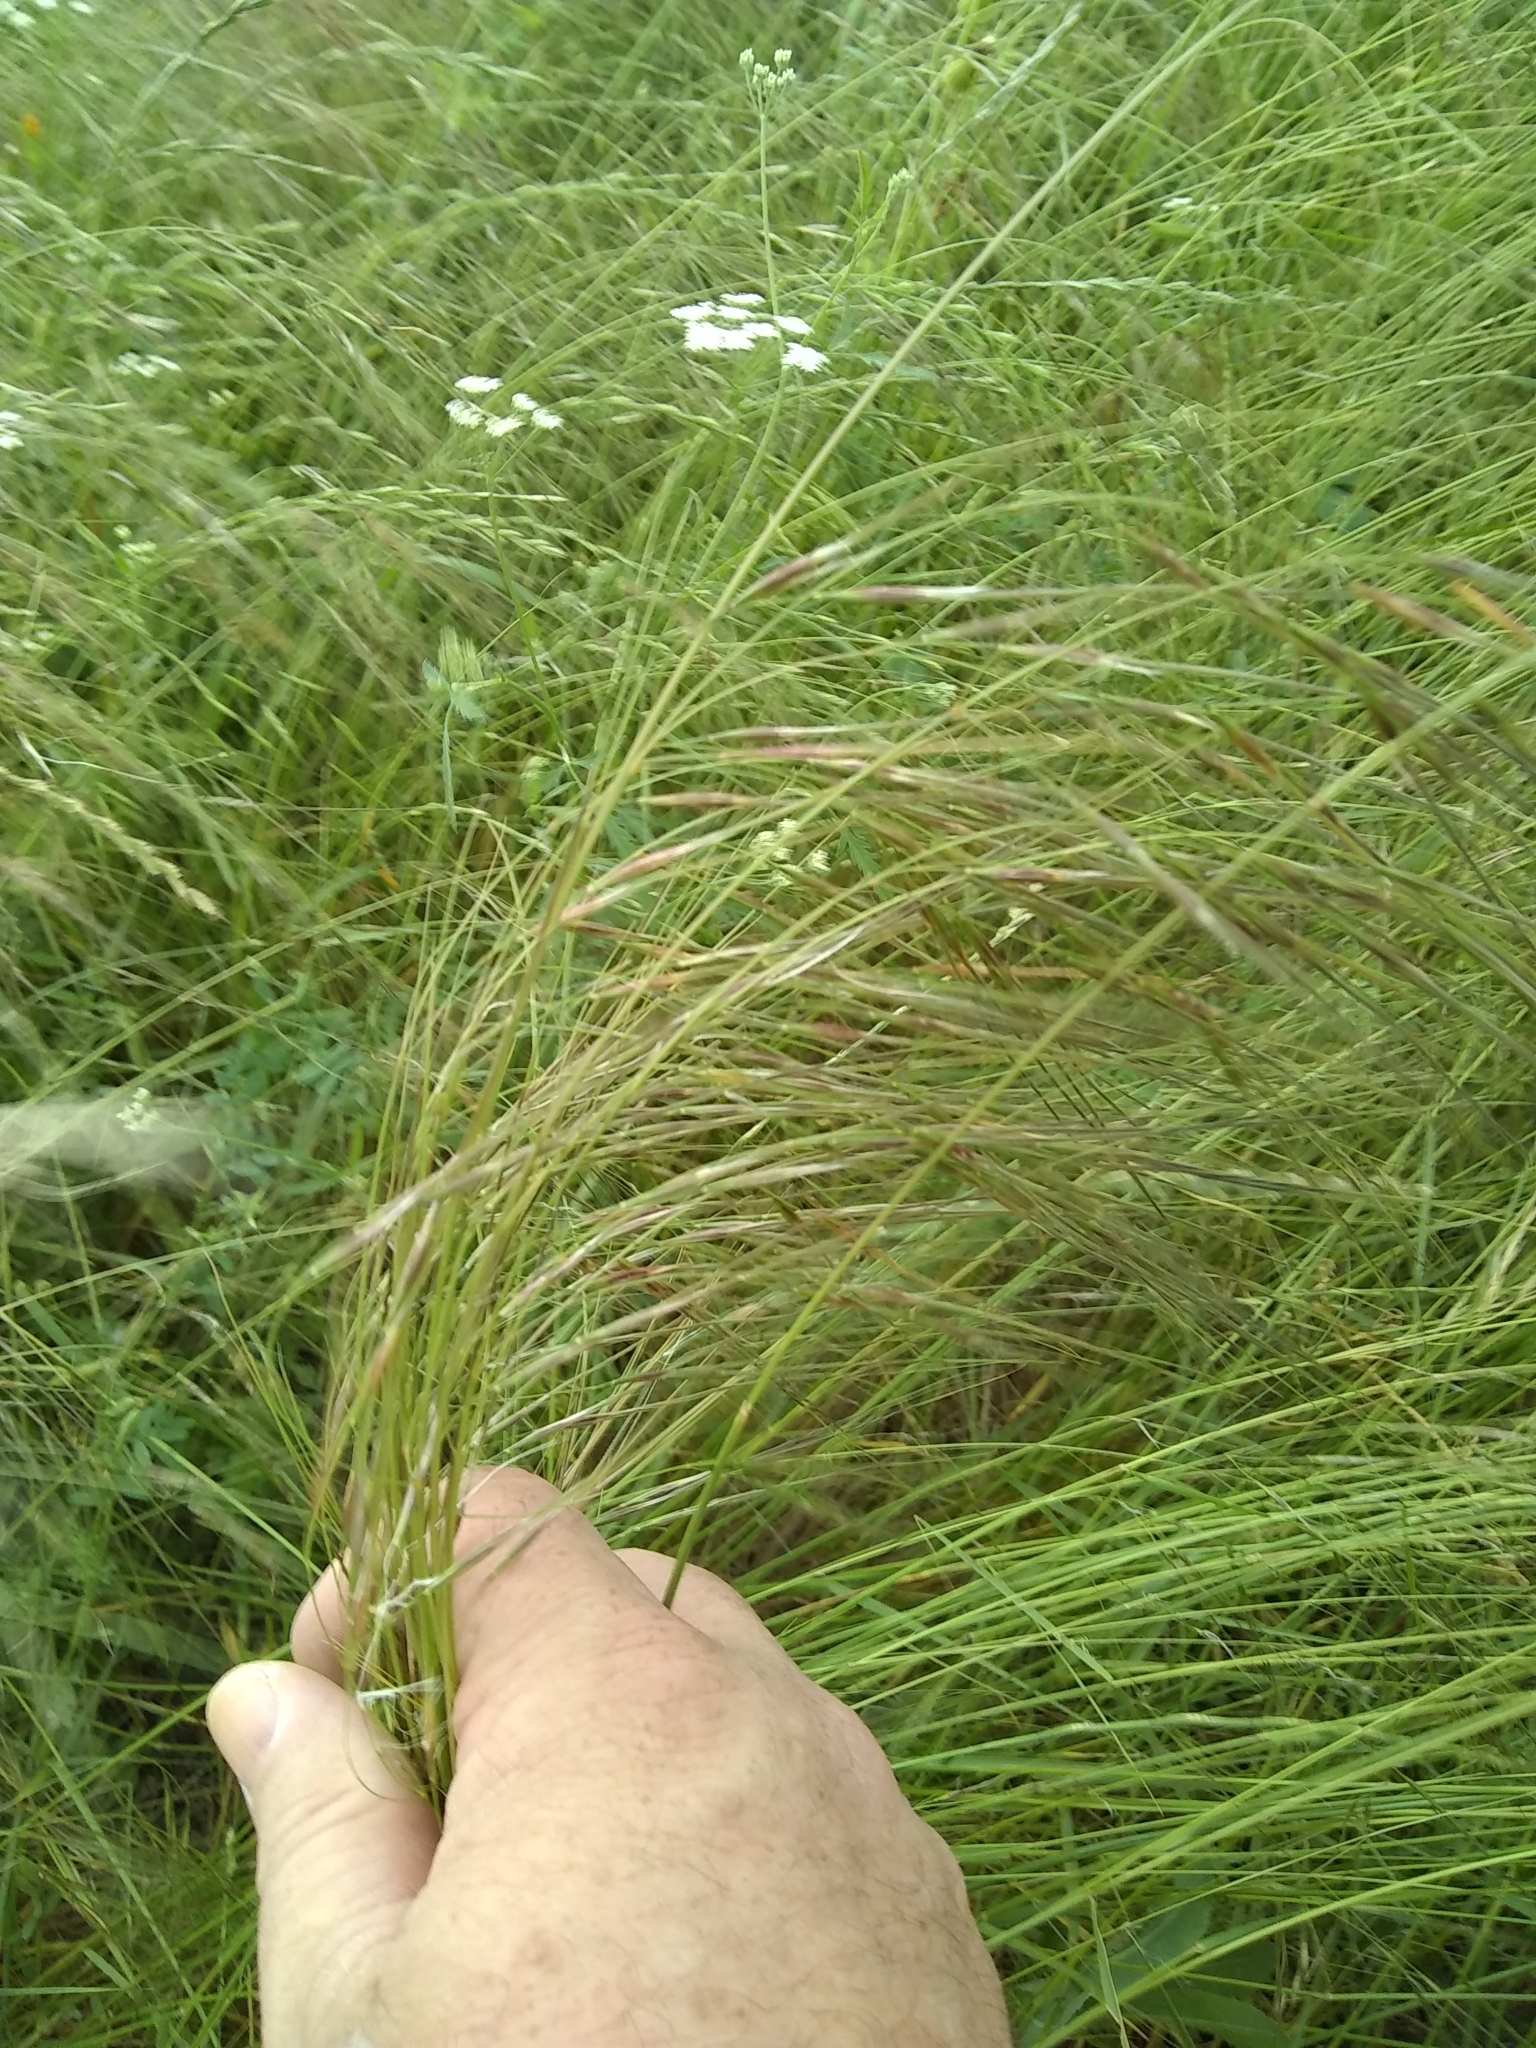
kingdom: Plantae
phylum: Tracheophyta
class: Liliopsida
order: Poales
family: Poaceae
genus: Nassella
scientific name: Nassella leucotricha
